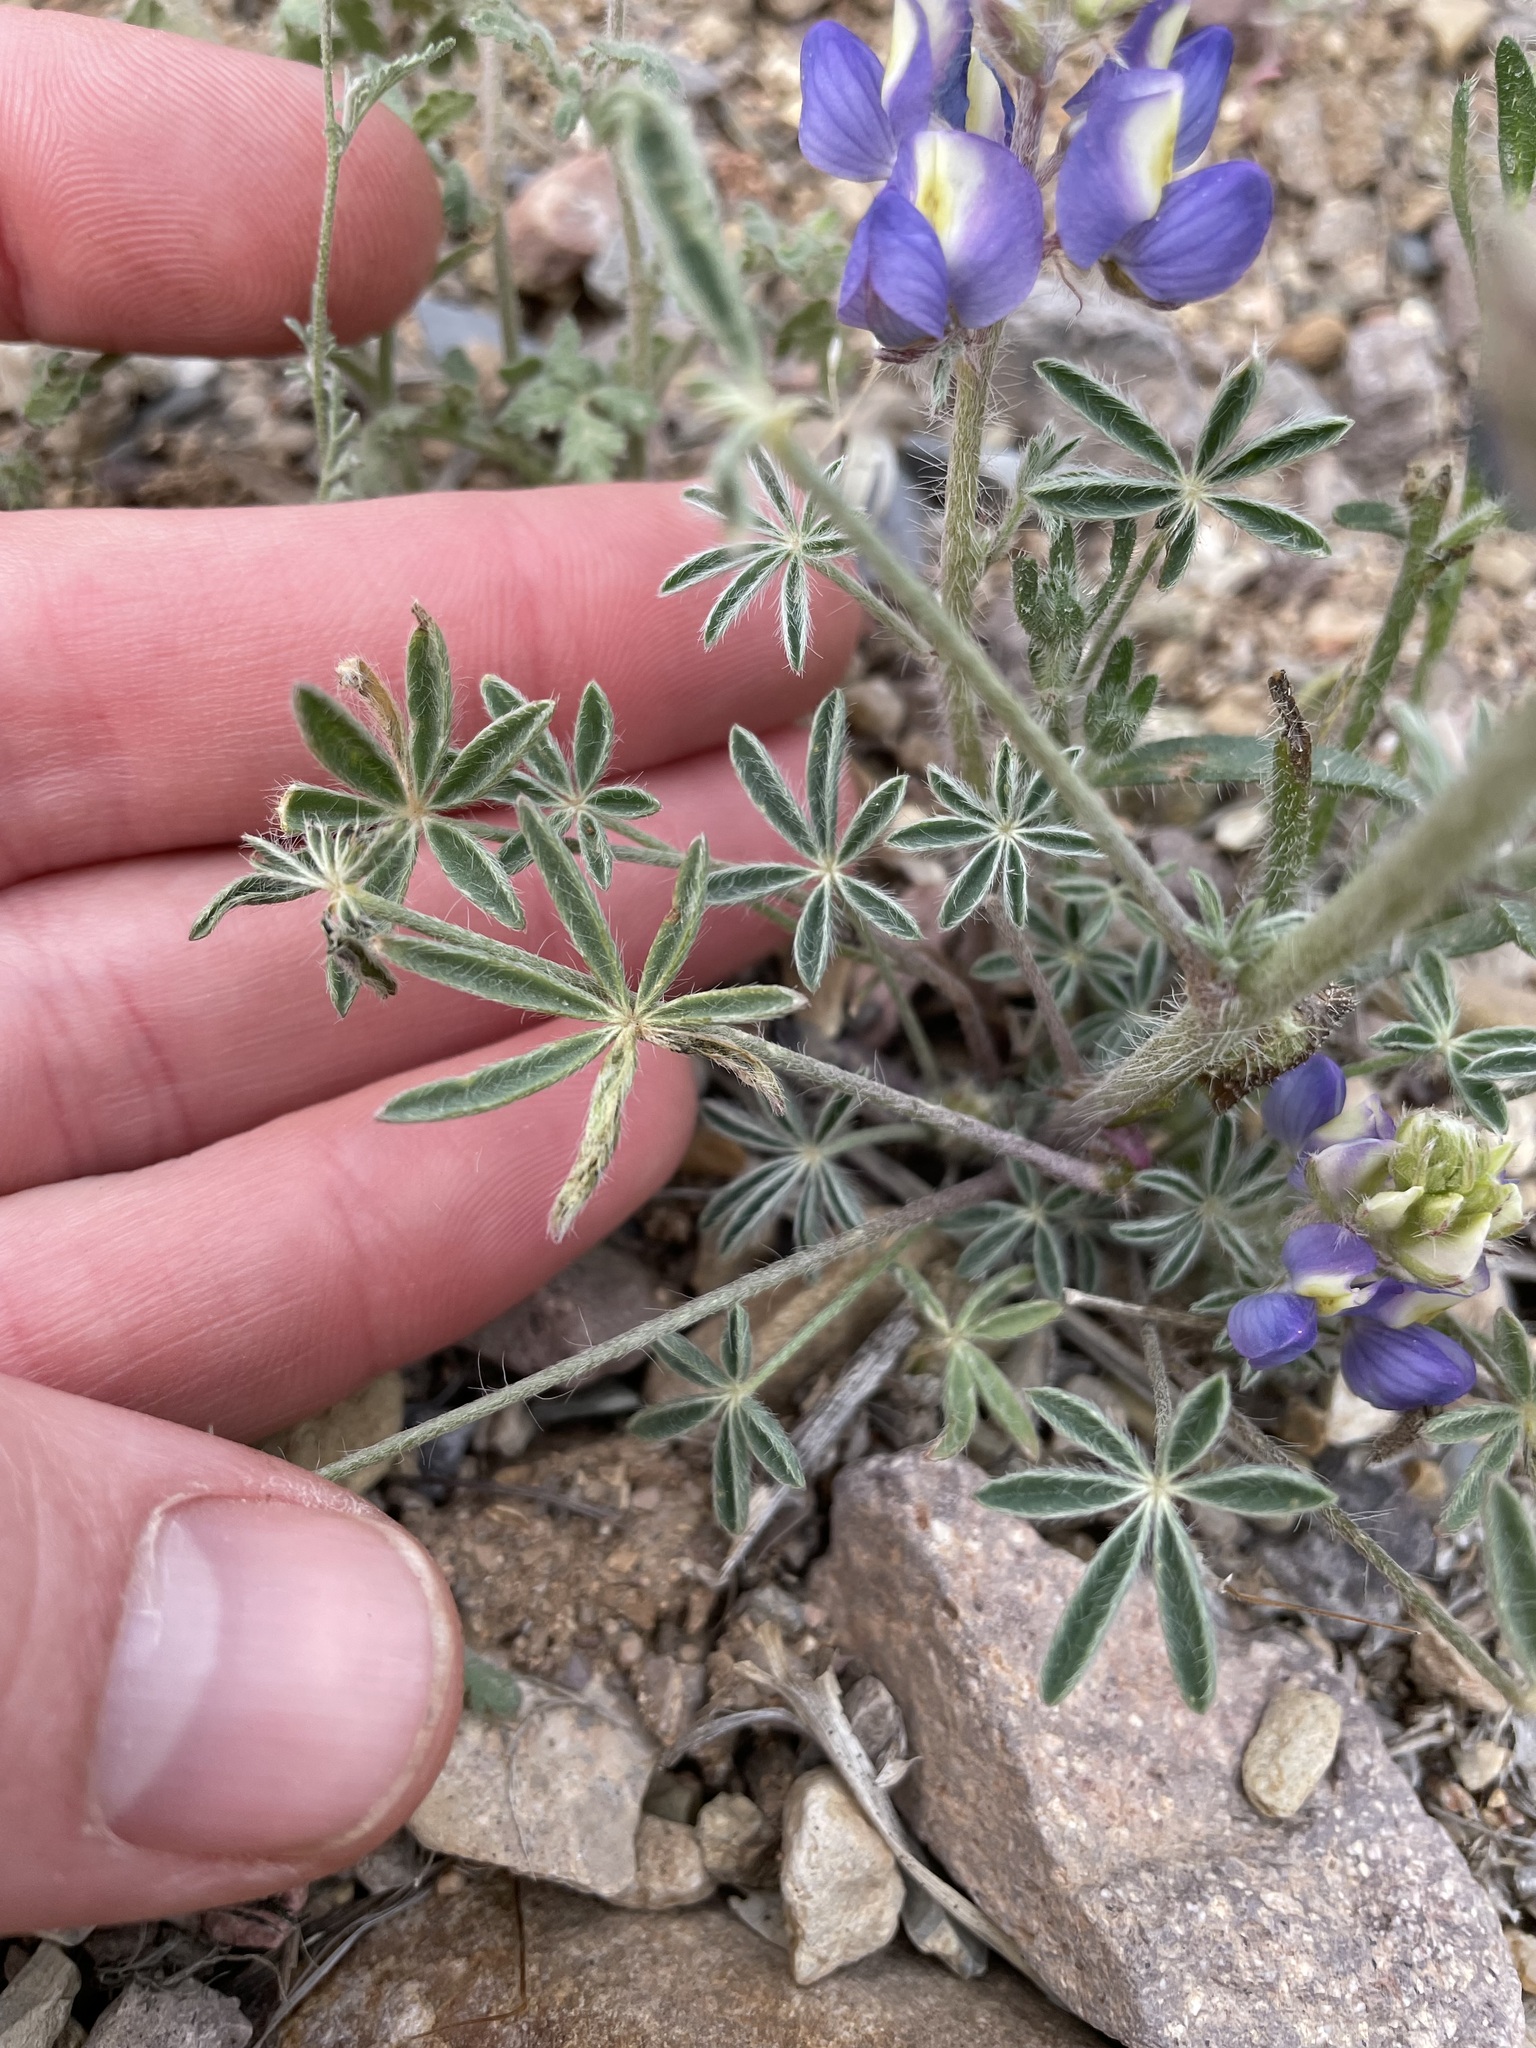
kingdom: Plantae
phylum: Tracheophyta
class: Magnoliopsida
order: Fabales
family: Fabaceae
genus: Lupinus
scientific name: Lupinus sparsiflorus
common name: Coulter's lupine
